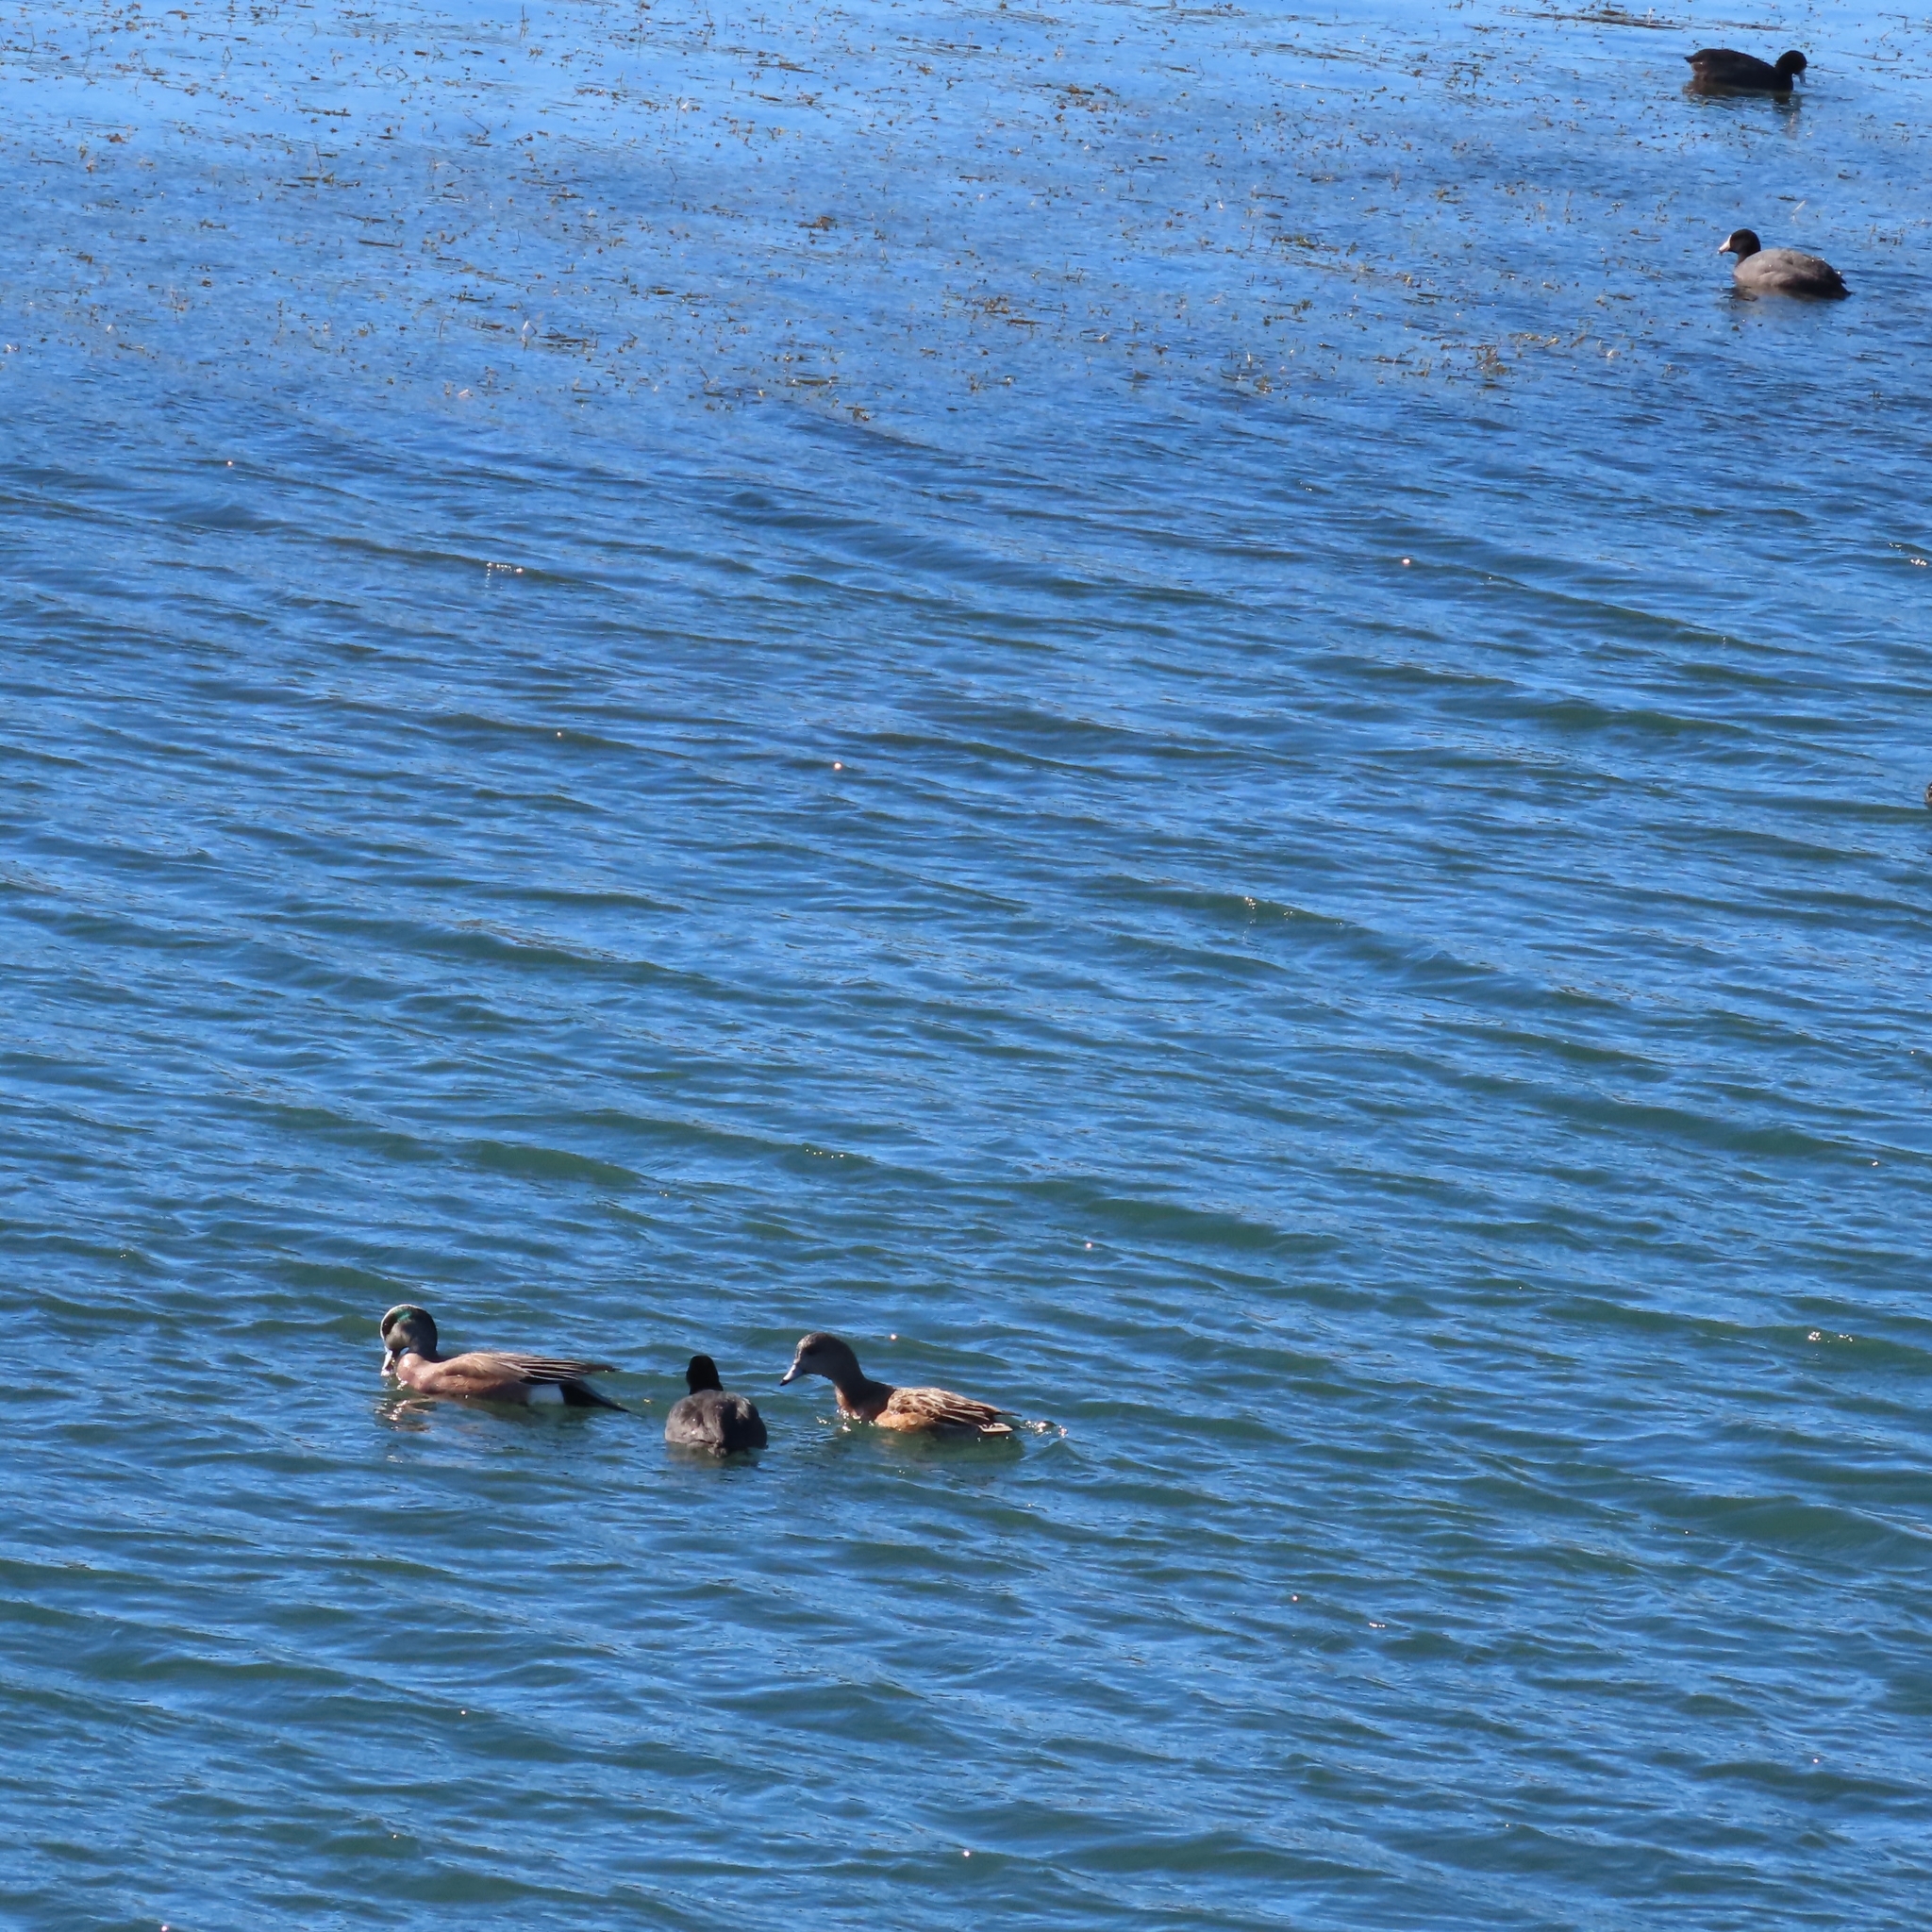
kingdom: Animalia
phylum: Chordata
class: Aves
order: Anseriformes
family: Anatidae
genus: Mareca
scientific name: Mareca americana
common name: American wigeon
